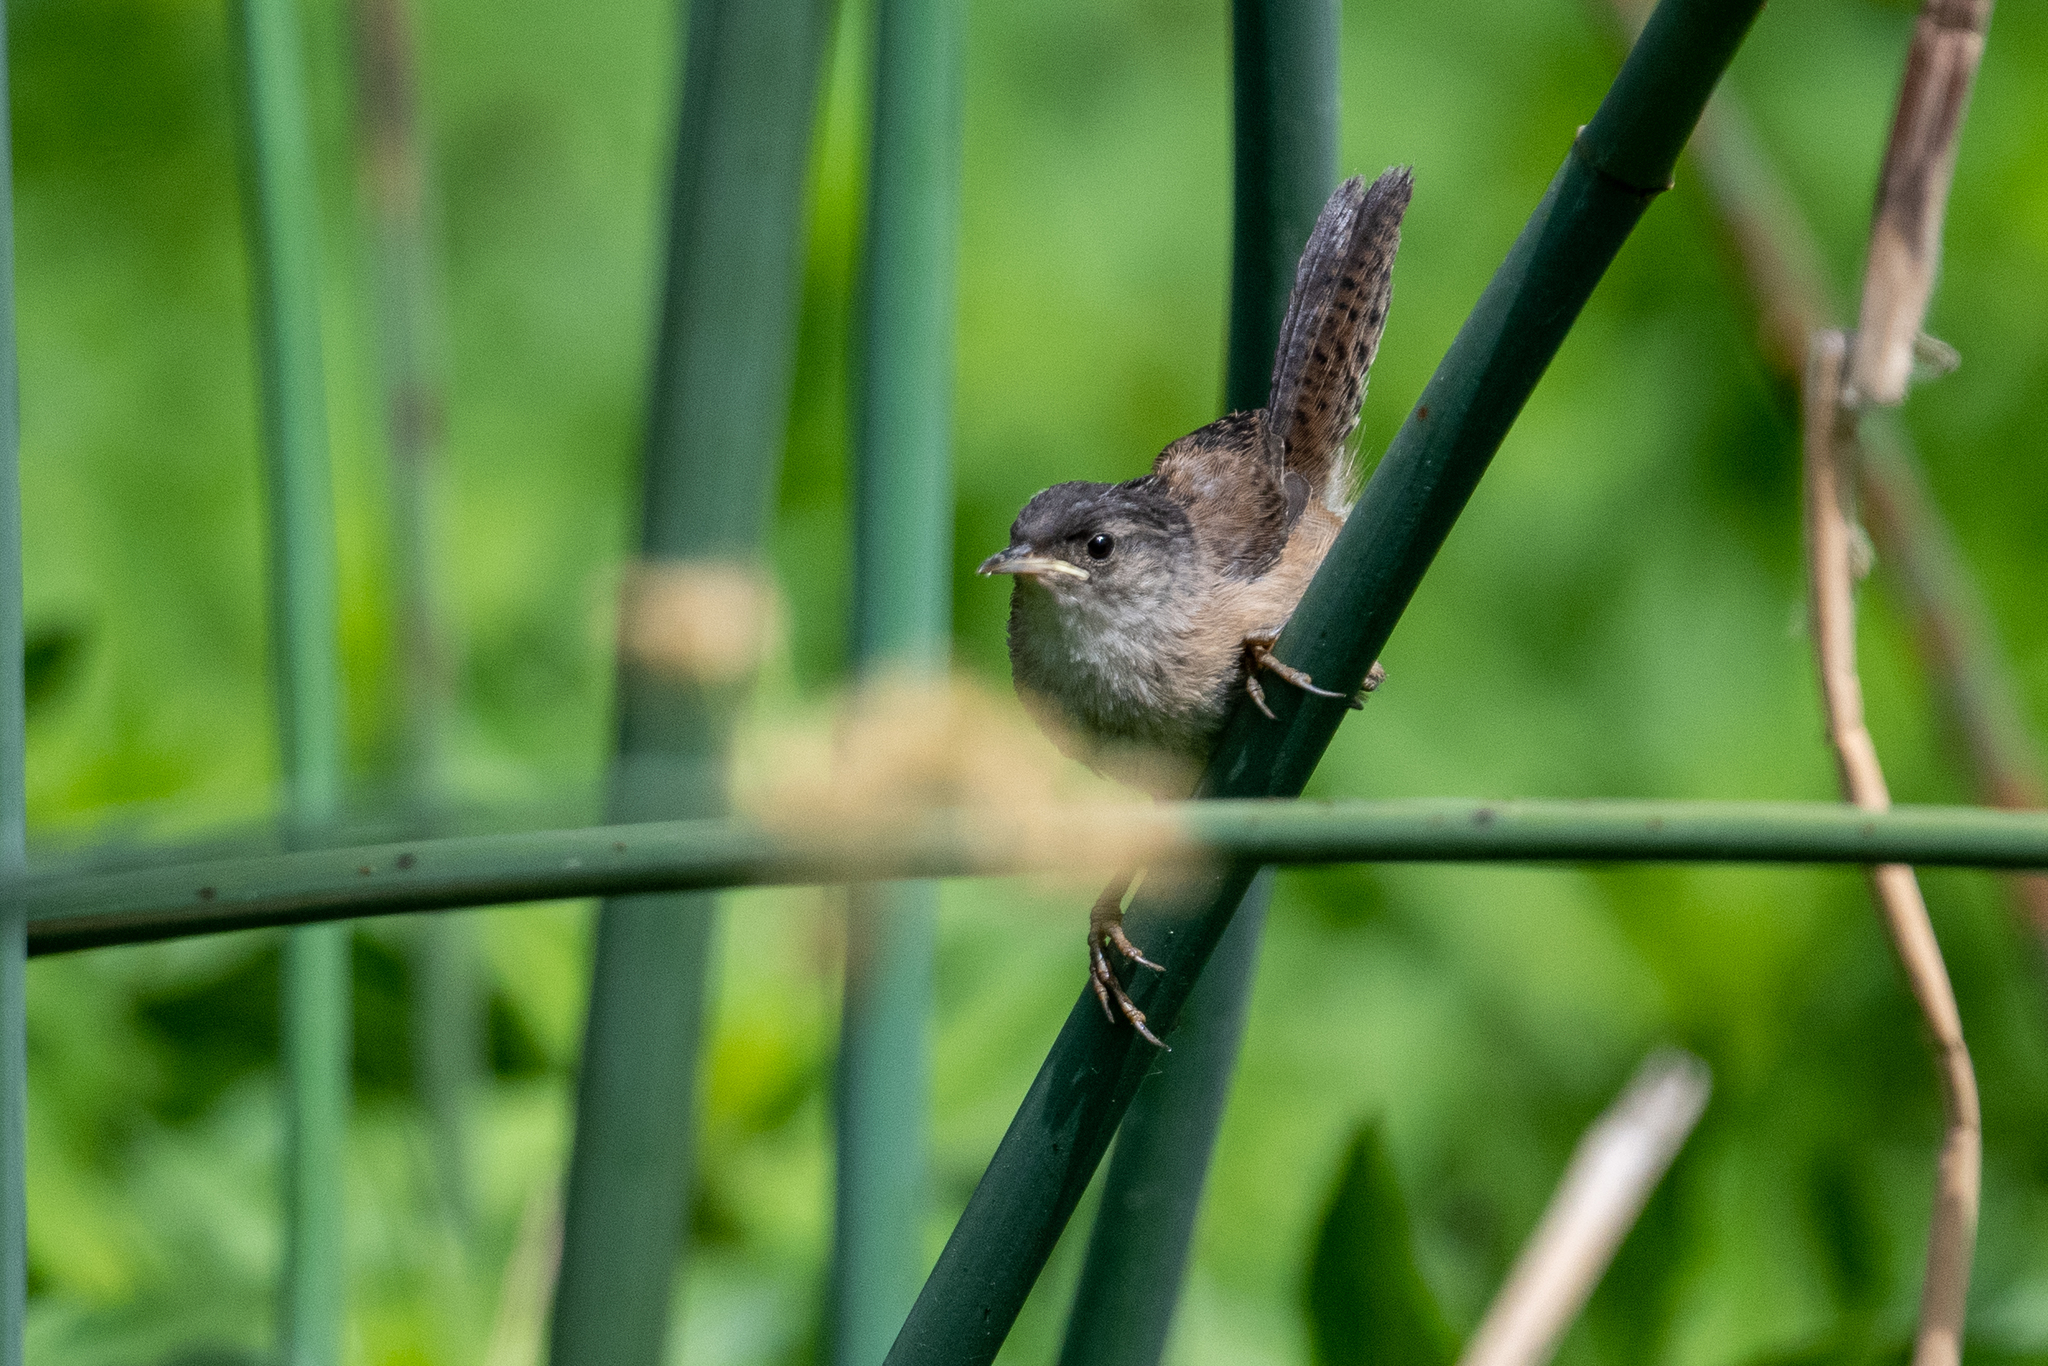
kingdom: Animalia
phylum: Chordata
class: Aves
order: Passeriformes
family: Troglodytidae
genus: Cistothorus
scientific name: Cistothorus palustris
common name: Marsh wren
